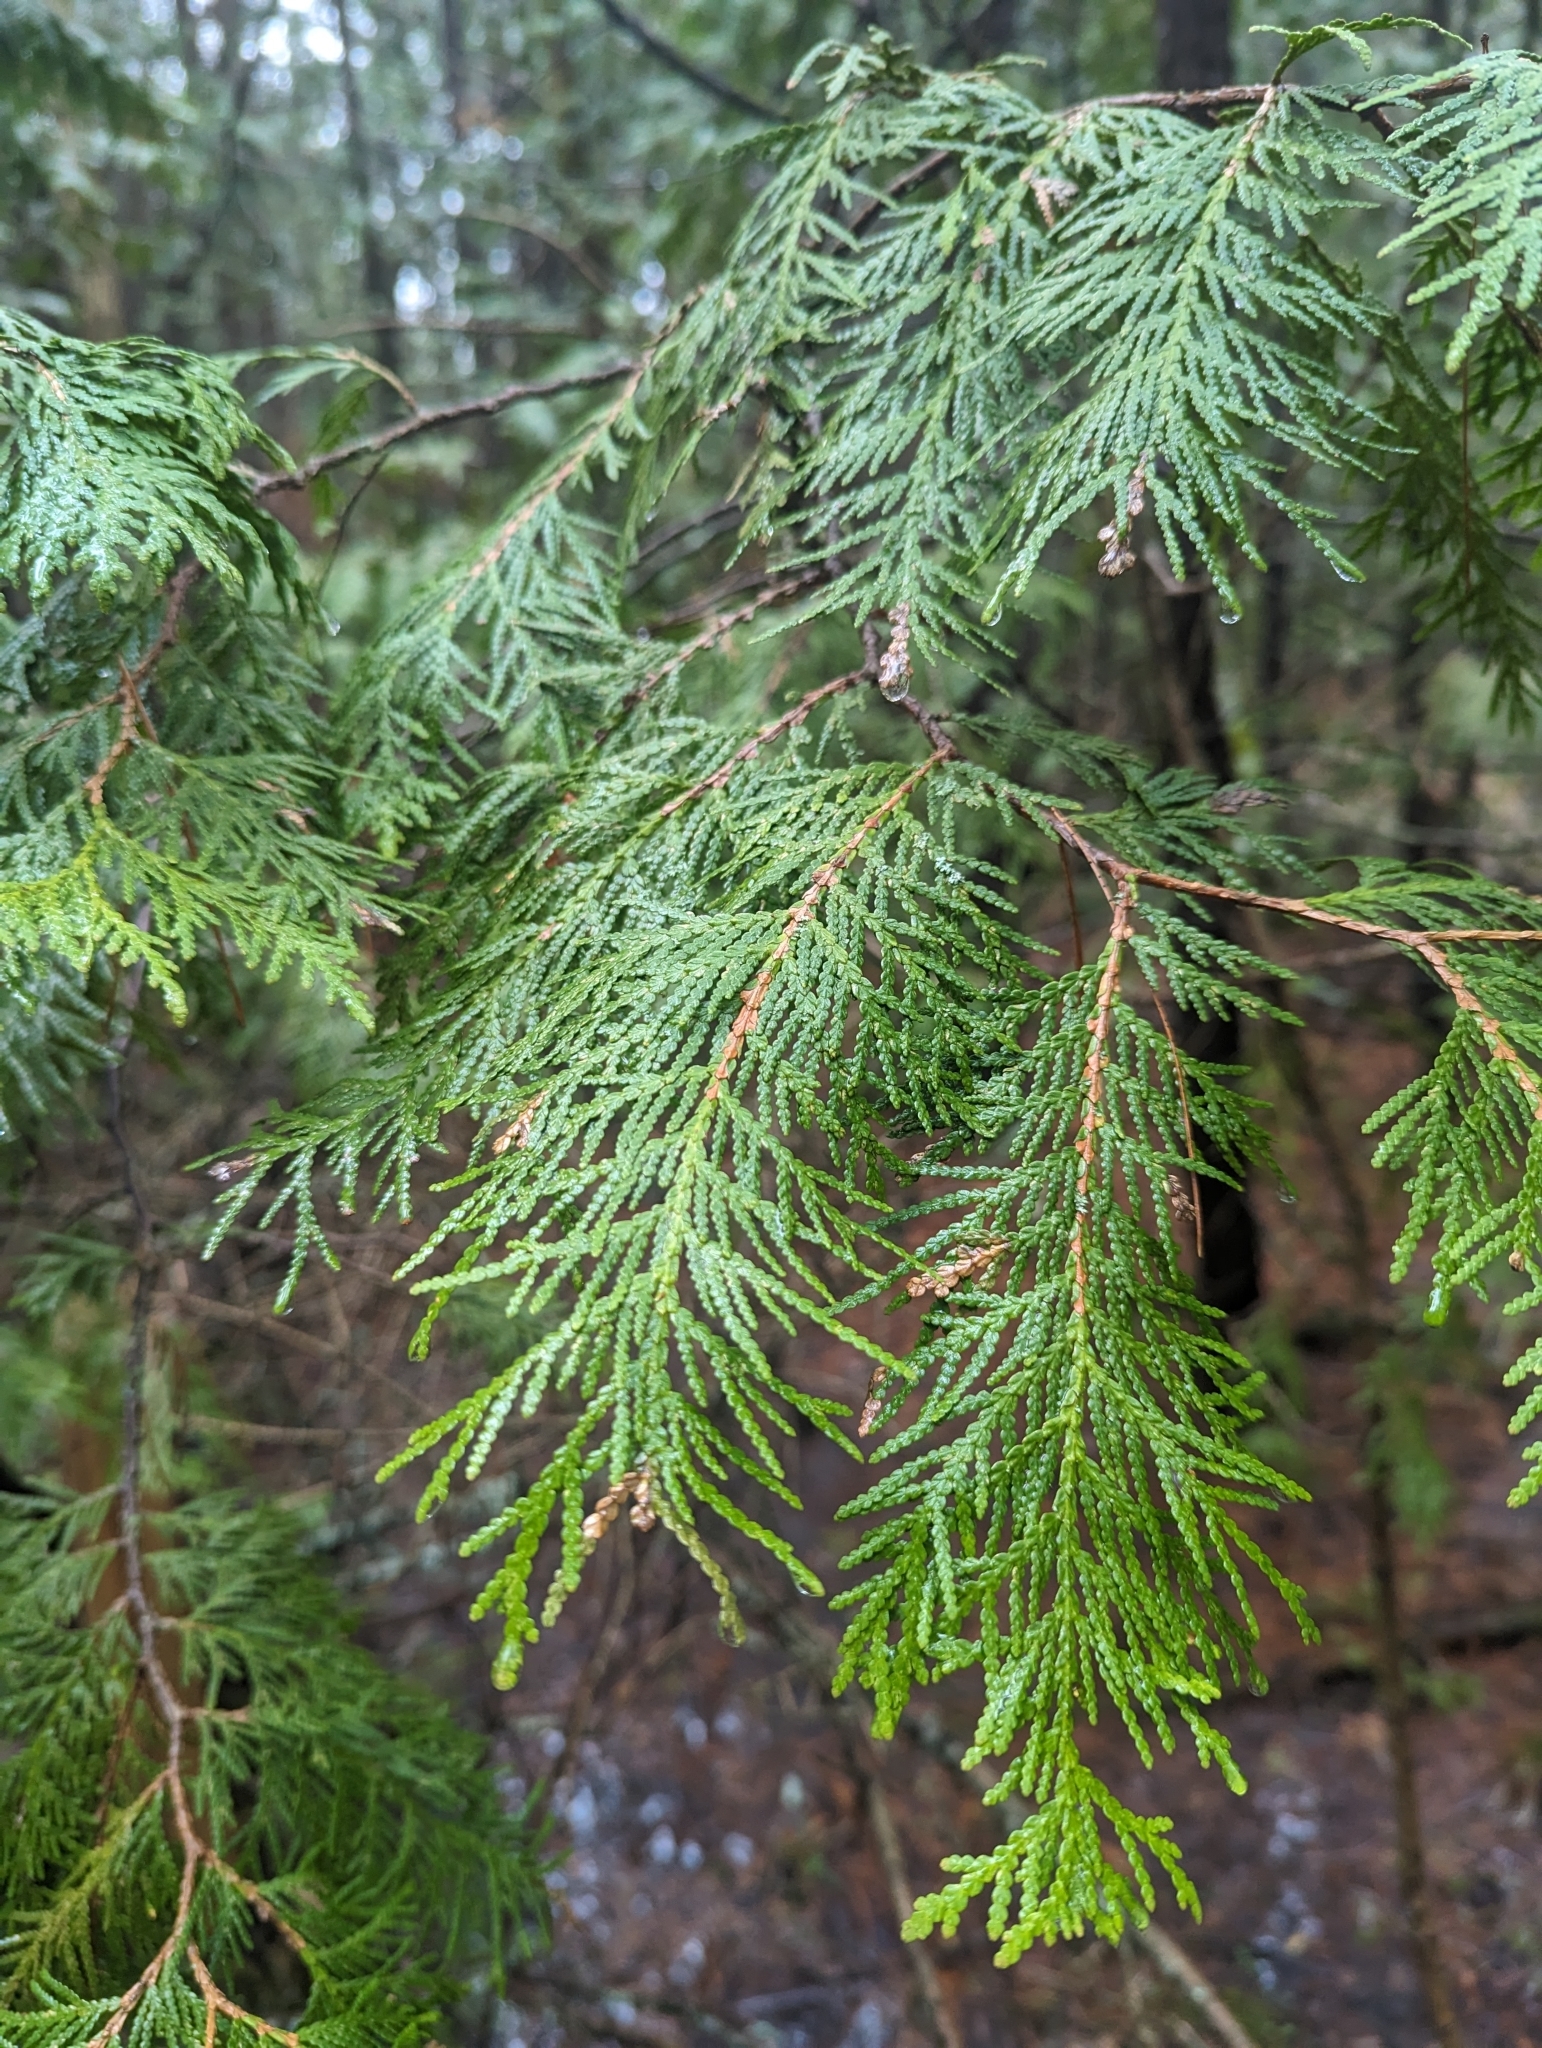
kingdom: Plantae
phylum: Tracheophyta
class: Pinopsida
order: Pinales
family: Cupressaceae
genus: Thuja
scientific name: Thuja occidentalis
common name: Northern white-cedar
